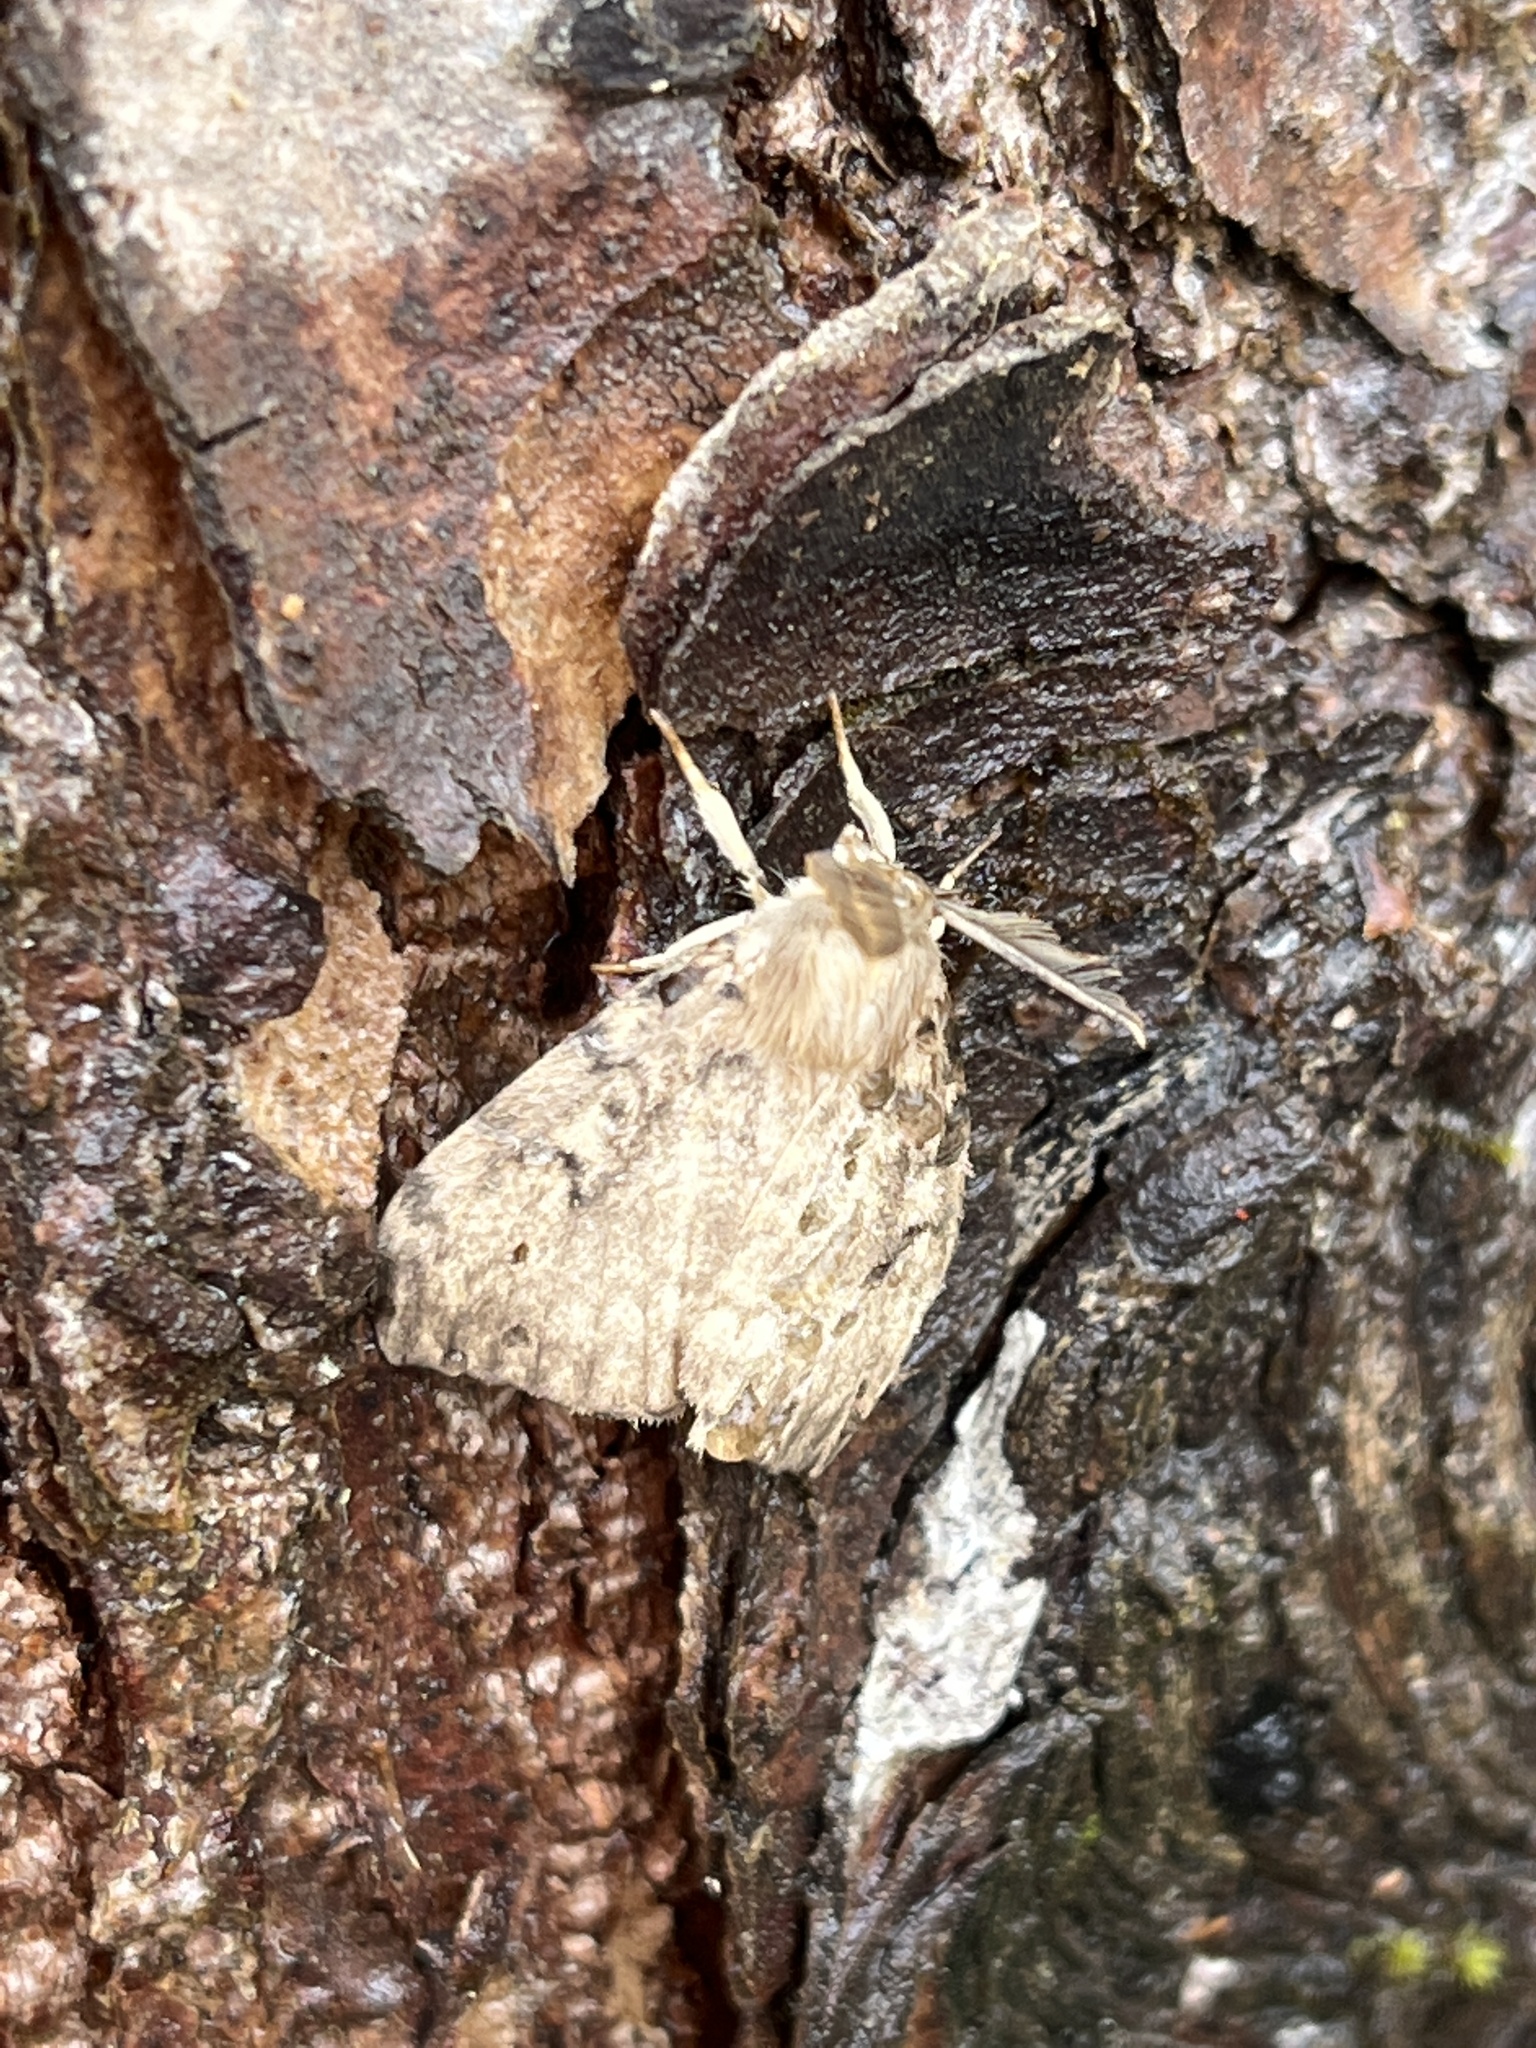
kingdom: Animalia
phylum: Arthropoda
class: Insecta
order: Lepidoptera
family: Erebidae
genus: Lymantria
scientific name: Lymantria dispar
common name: Gypsy moth
